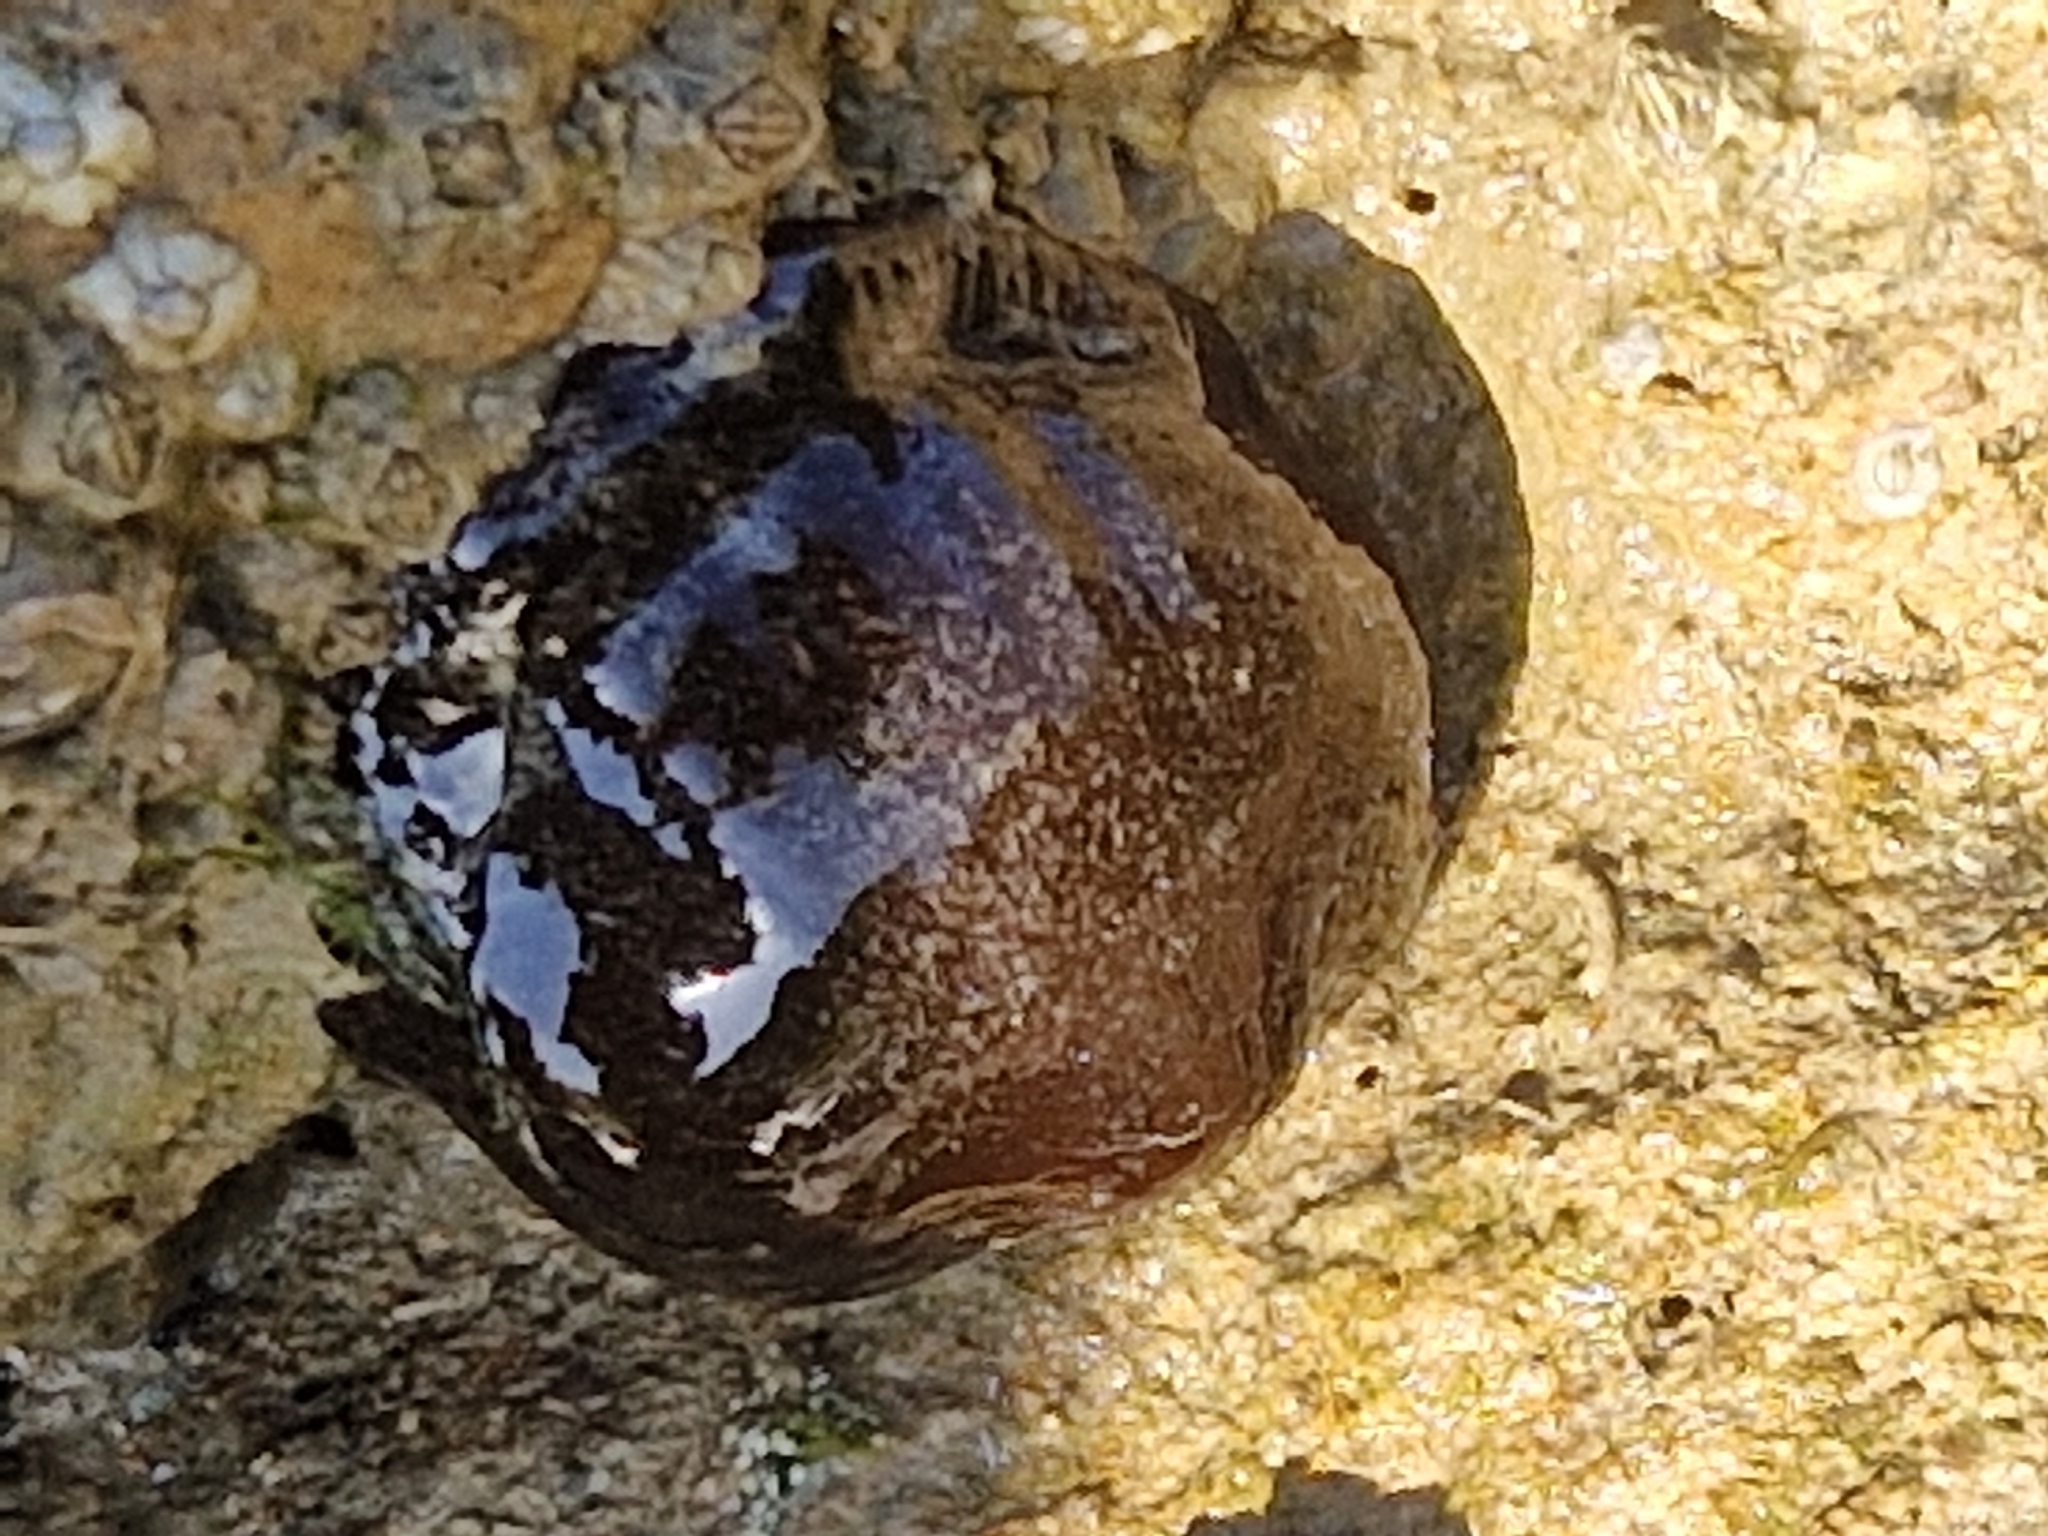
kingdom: Animalia
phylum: Cnidaria
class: Anthozoa
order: Actiniaria
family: Actiniidae
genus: Actinia
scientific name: Actinia equina
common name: Beadlet anemone
